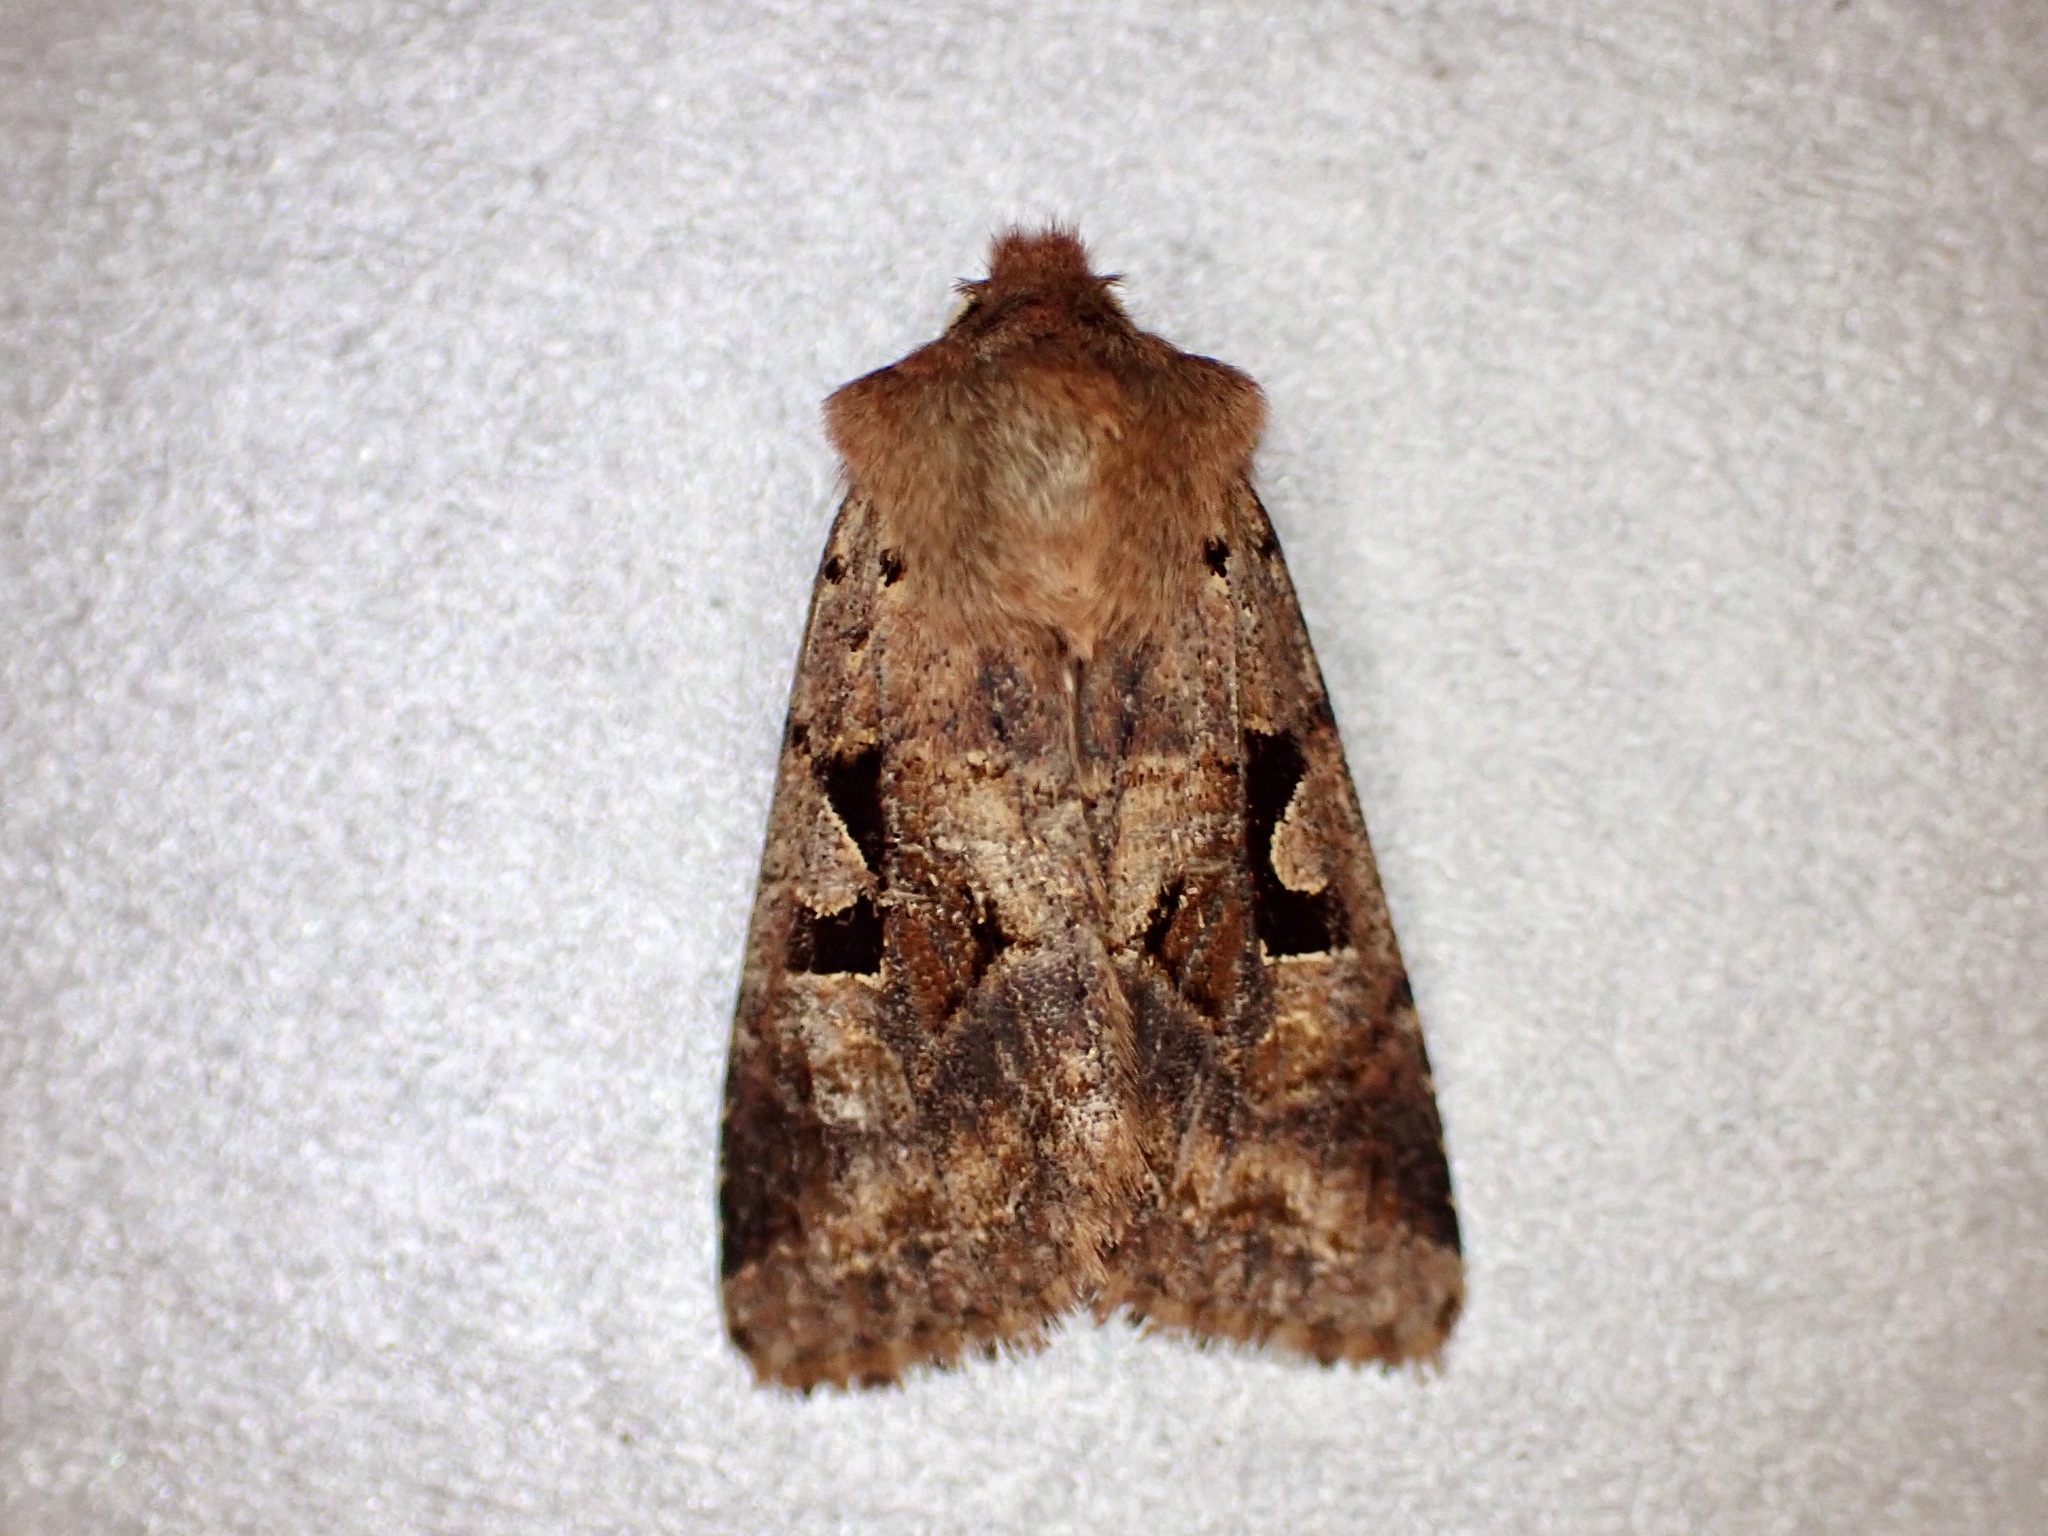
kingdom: Animalia
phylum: Arthropoda
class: Insecta
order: Lepidoptera
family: Noctuidae
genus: Orthosia
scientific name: Orthosia gothica
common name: Hebrew character
